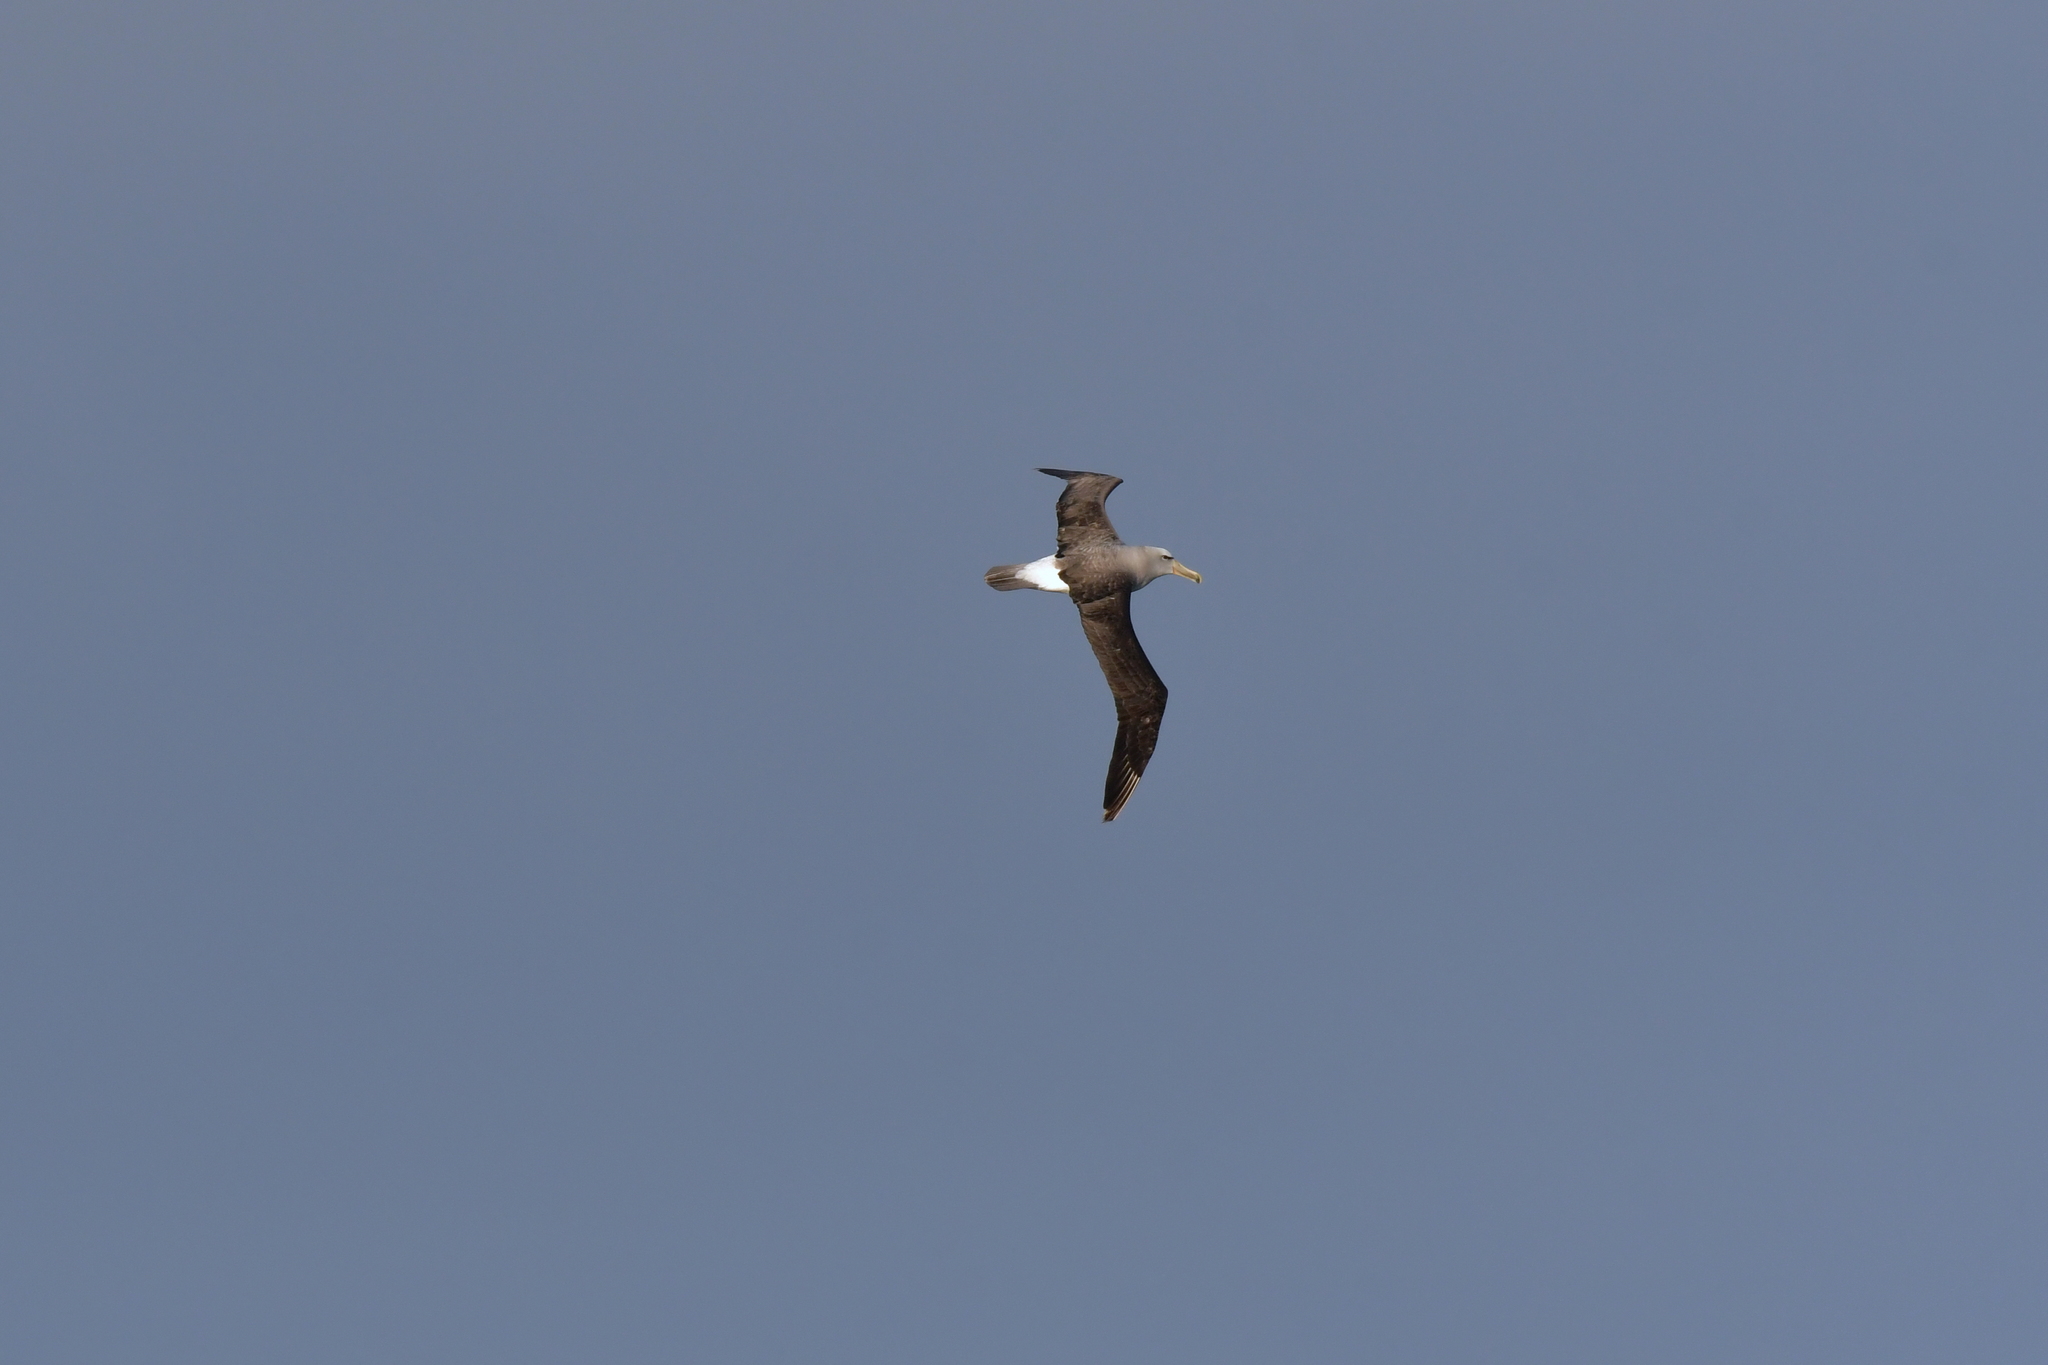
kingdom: Animalia
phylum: Chordata
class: Aves
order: Procellariiformes
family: Diomedeidae
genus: Thalassarche
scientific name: Thalassarche salvini
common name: Salvin's albatross
